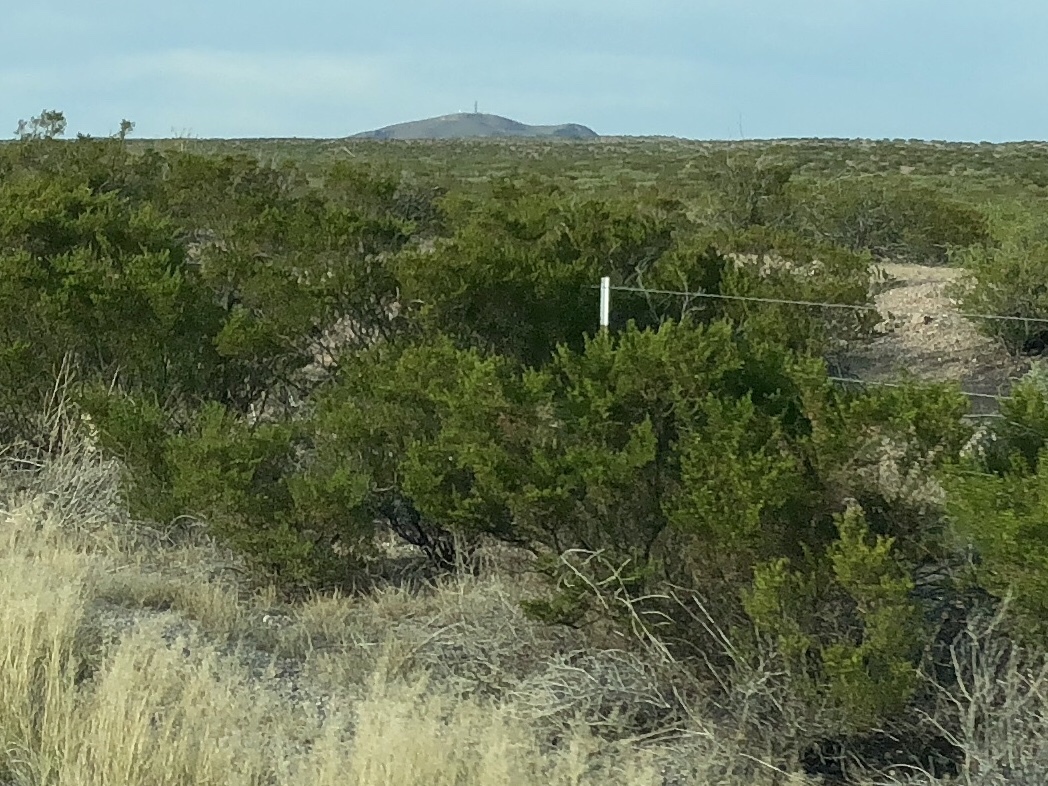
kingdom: Plantae
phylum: Tracheophyta
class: Magnoliopsida
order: Zygophyllales
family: Zygophyllaceae
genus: Larrea
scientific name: Larrea tridentata
